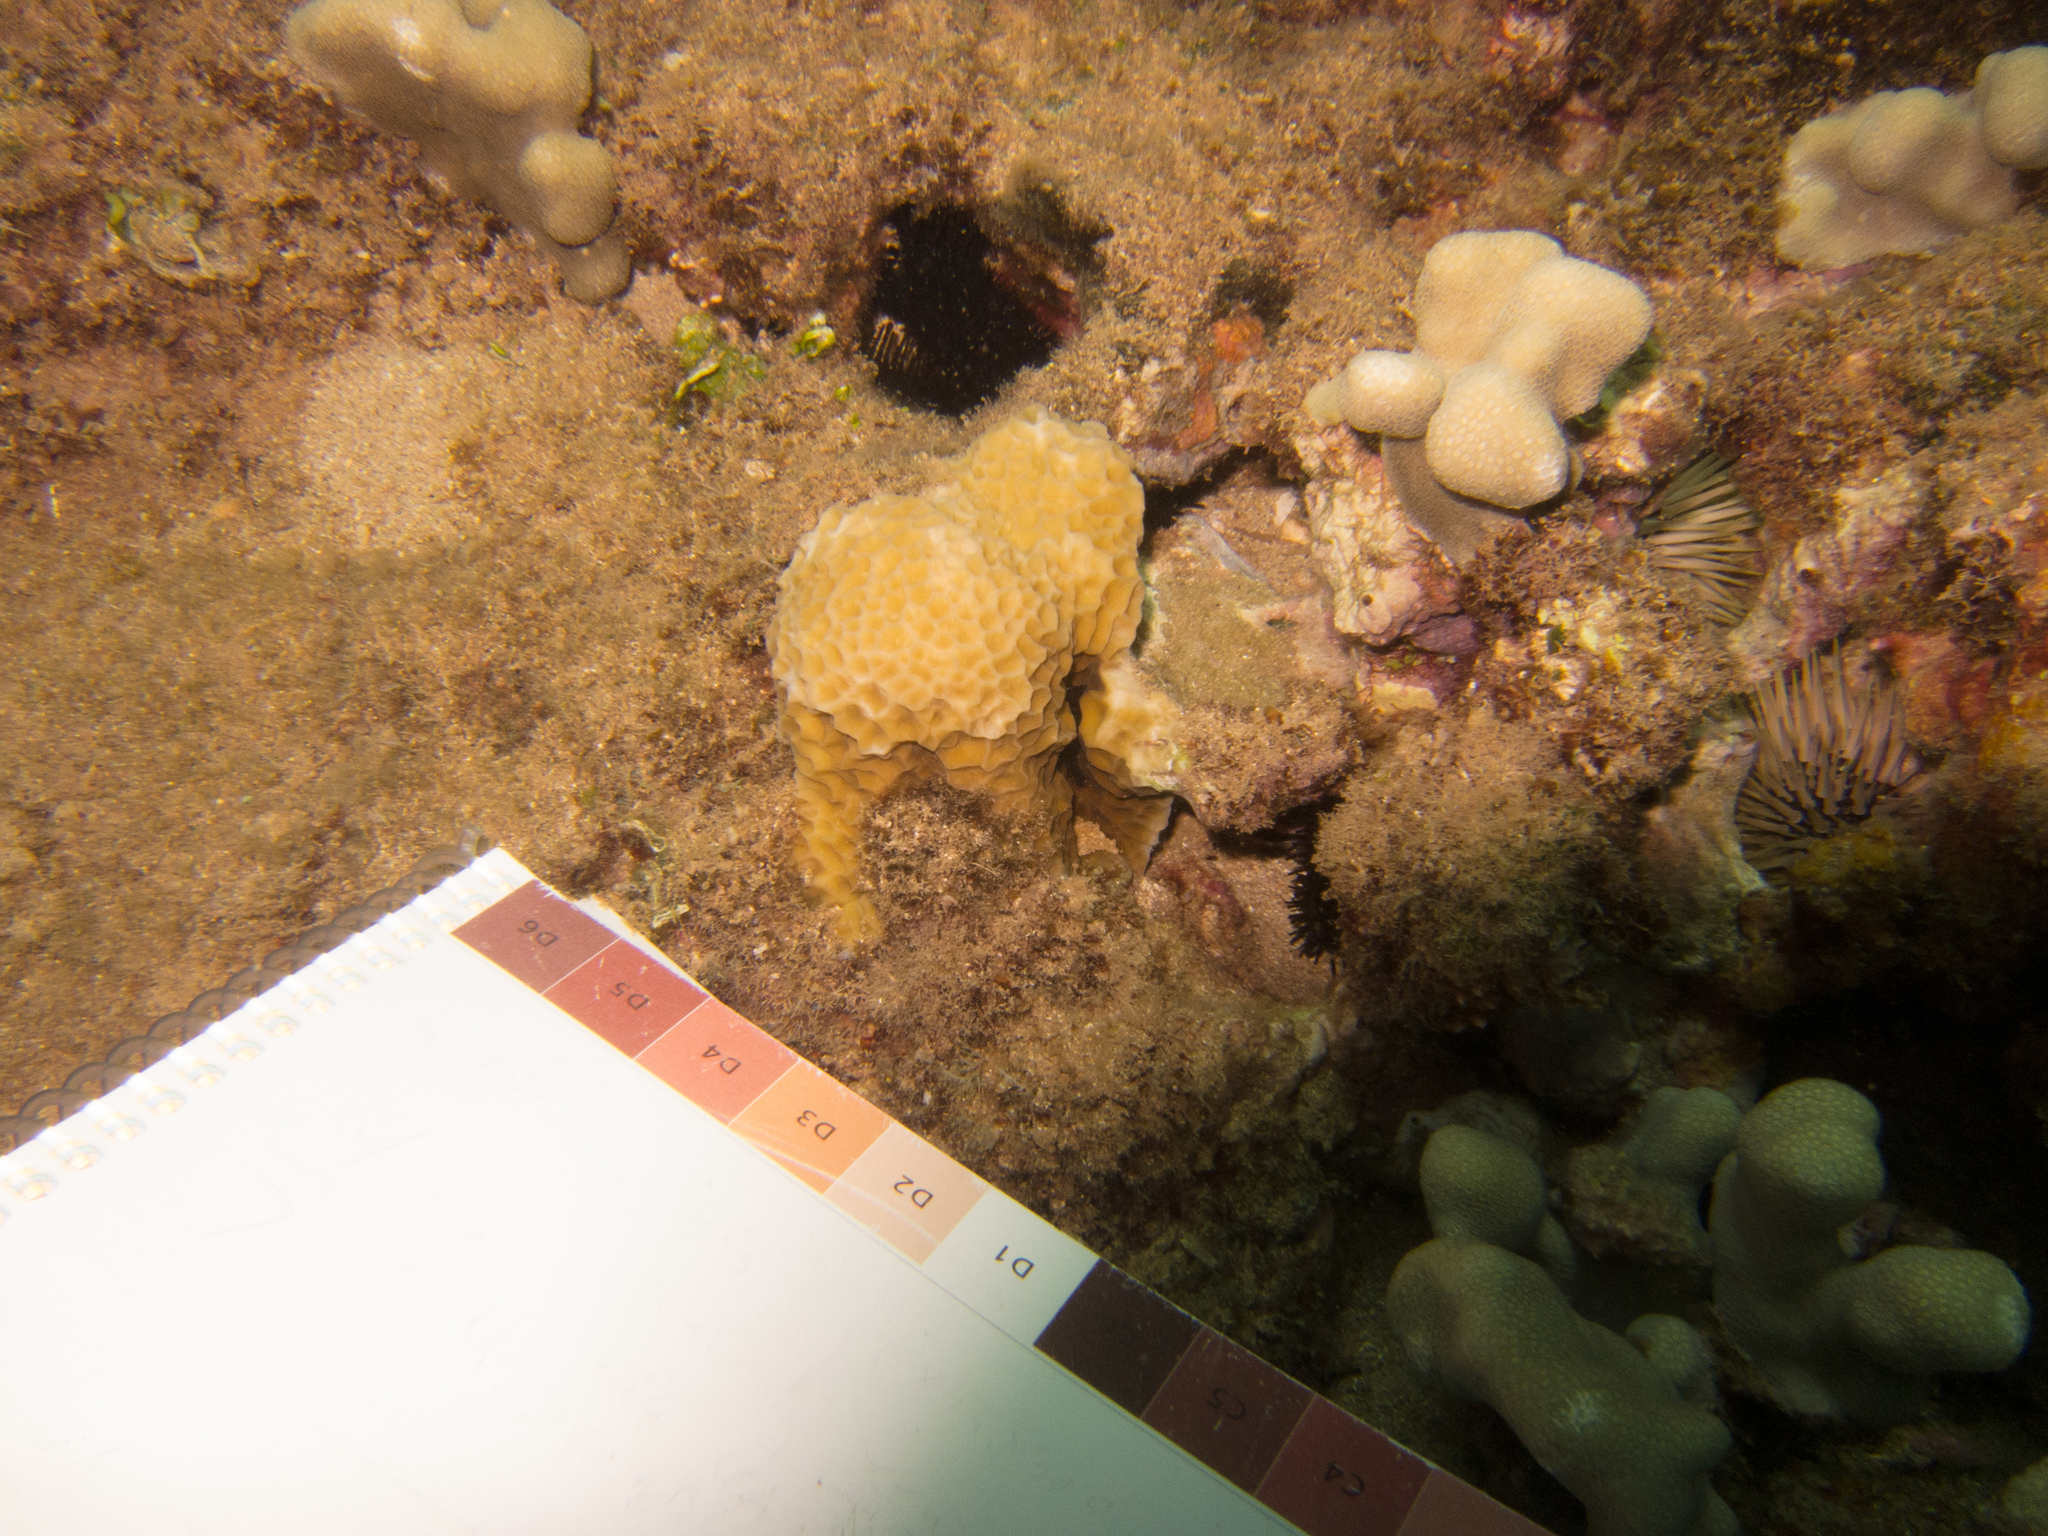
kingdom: Animalia
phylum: Cnidaria
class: Anthozoa
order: Scleractinia
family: Agariciidae
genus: Gardineroseris
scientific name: Gardineroseris planulata
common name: Gardiner's coral
